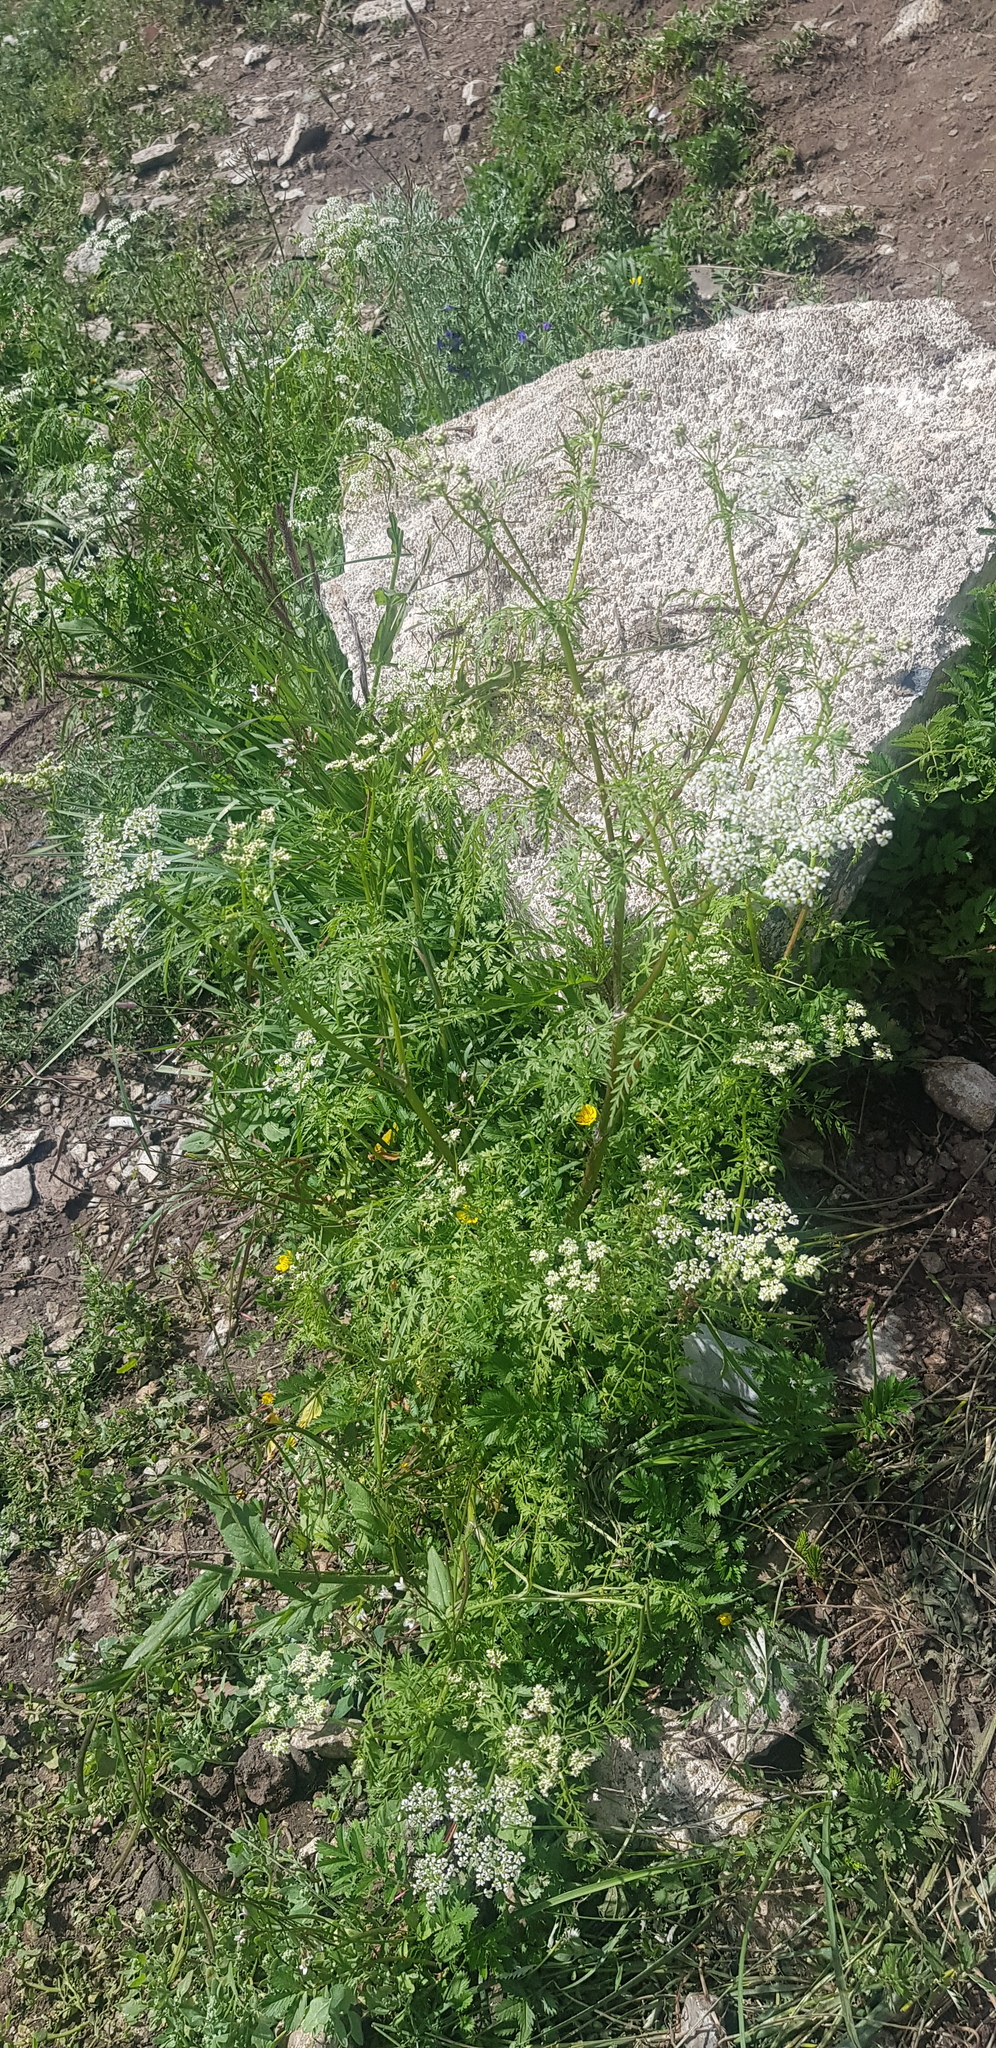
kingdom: Plantae
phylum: Tracheophyta
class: Magnoliopsida
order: Apiales
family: Apiaceae
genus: Sphallerocarpus
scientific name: Sphallerocarpus gracilis
